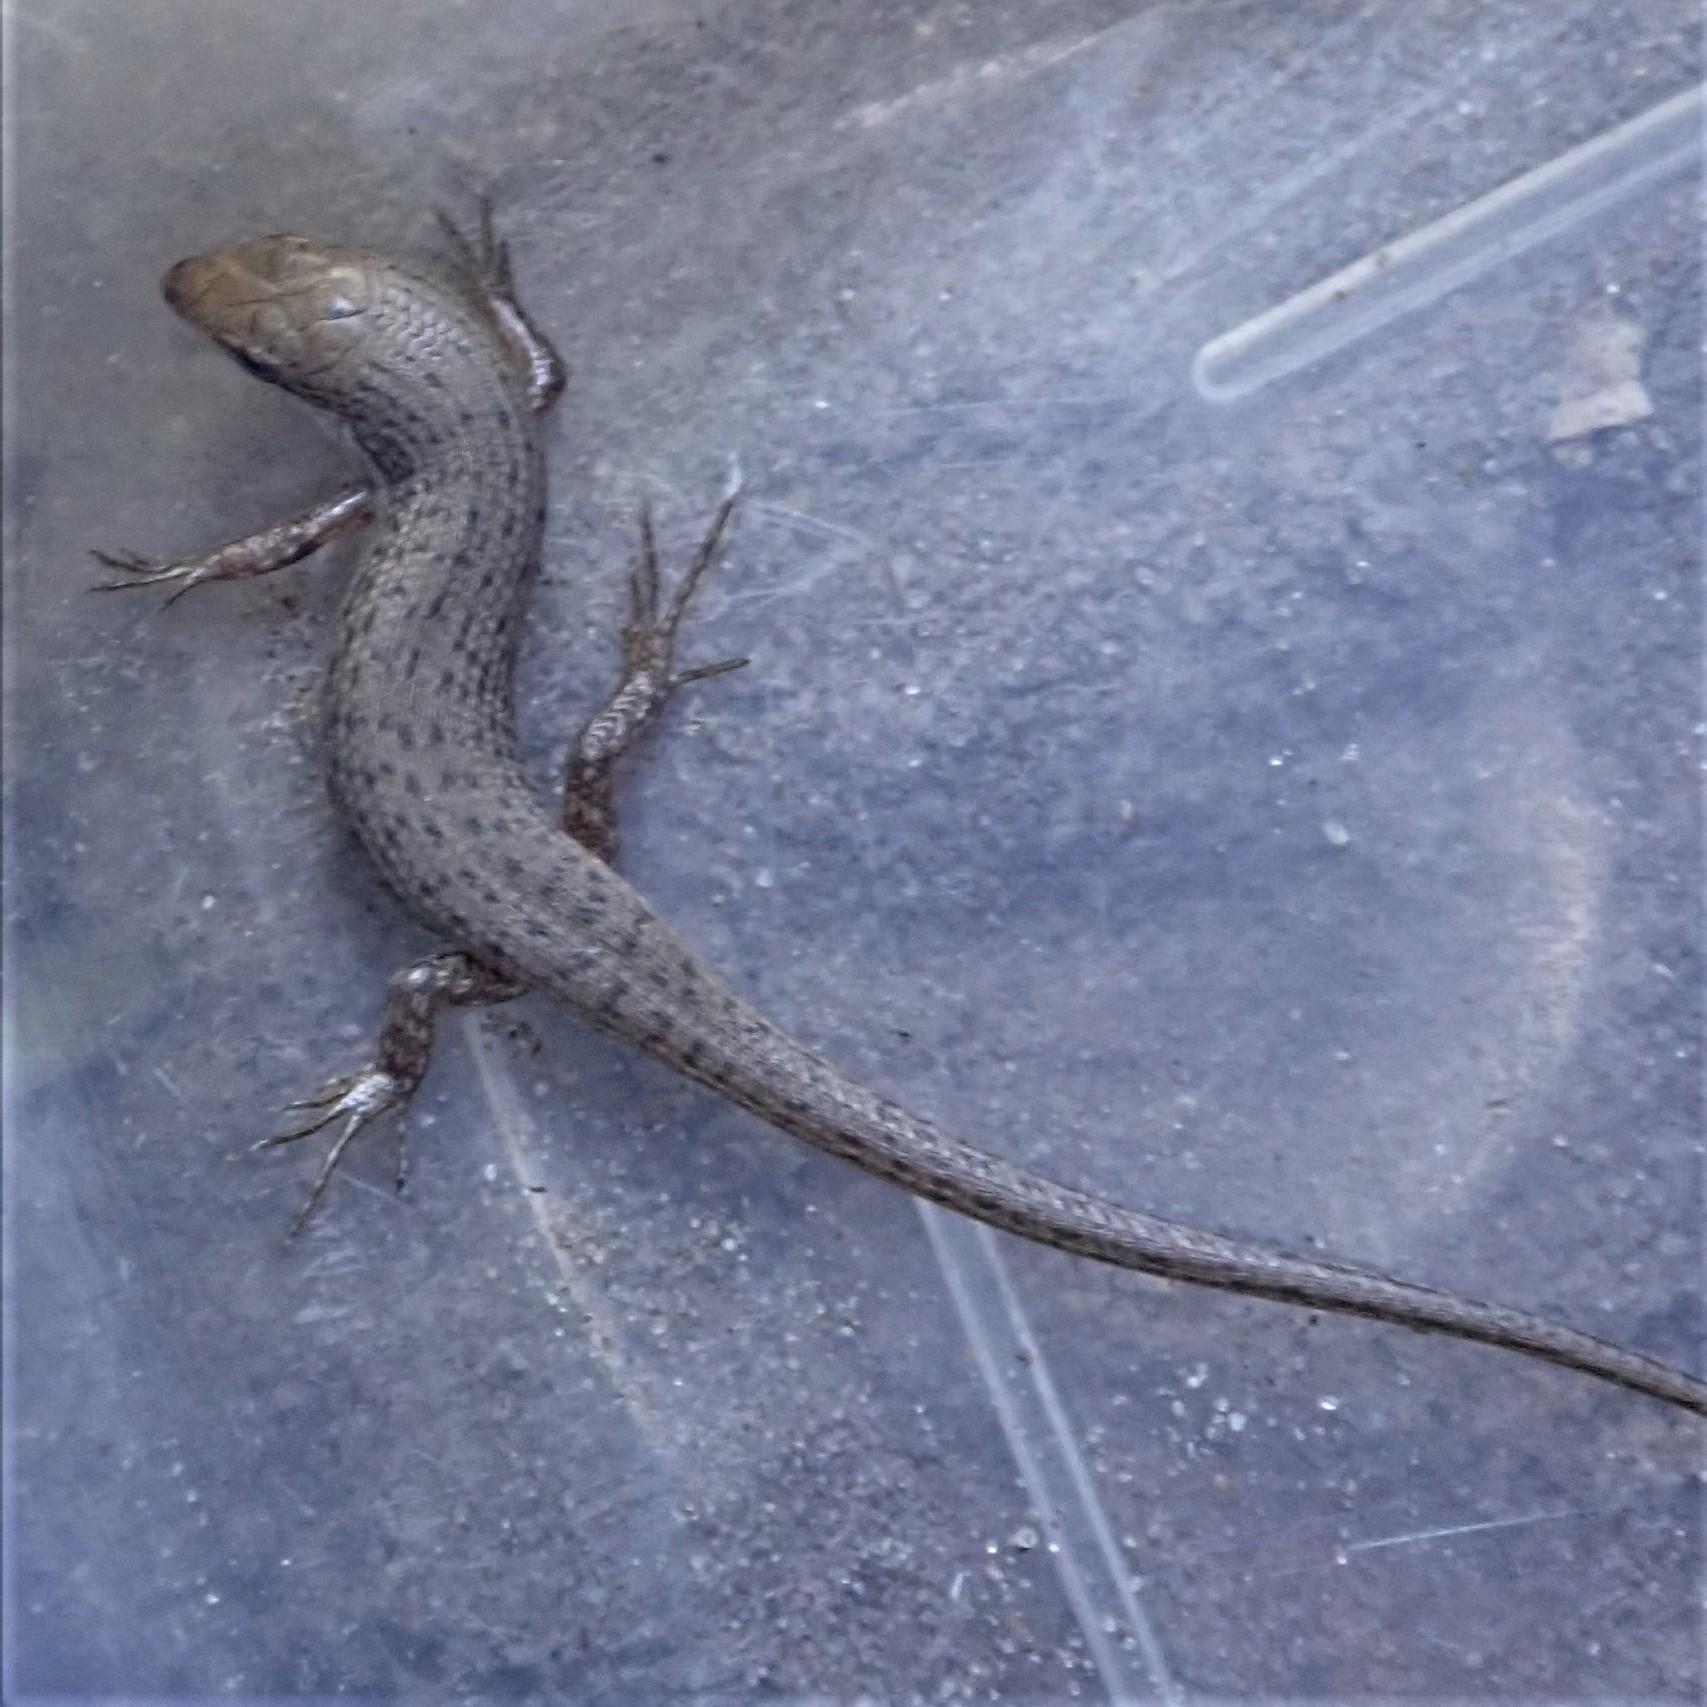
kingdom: Animalia
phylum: Chordata
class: Squamata
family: Scincidae
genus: Trachylepis
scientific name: Trachylepis punctulata
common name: Speckled sand skink
